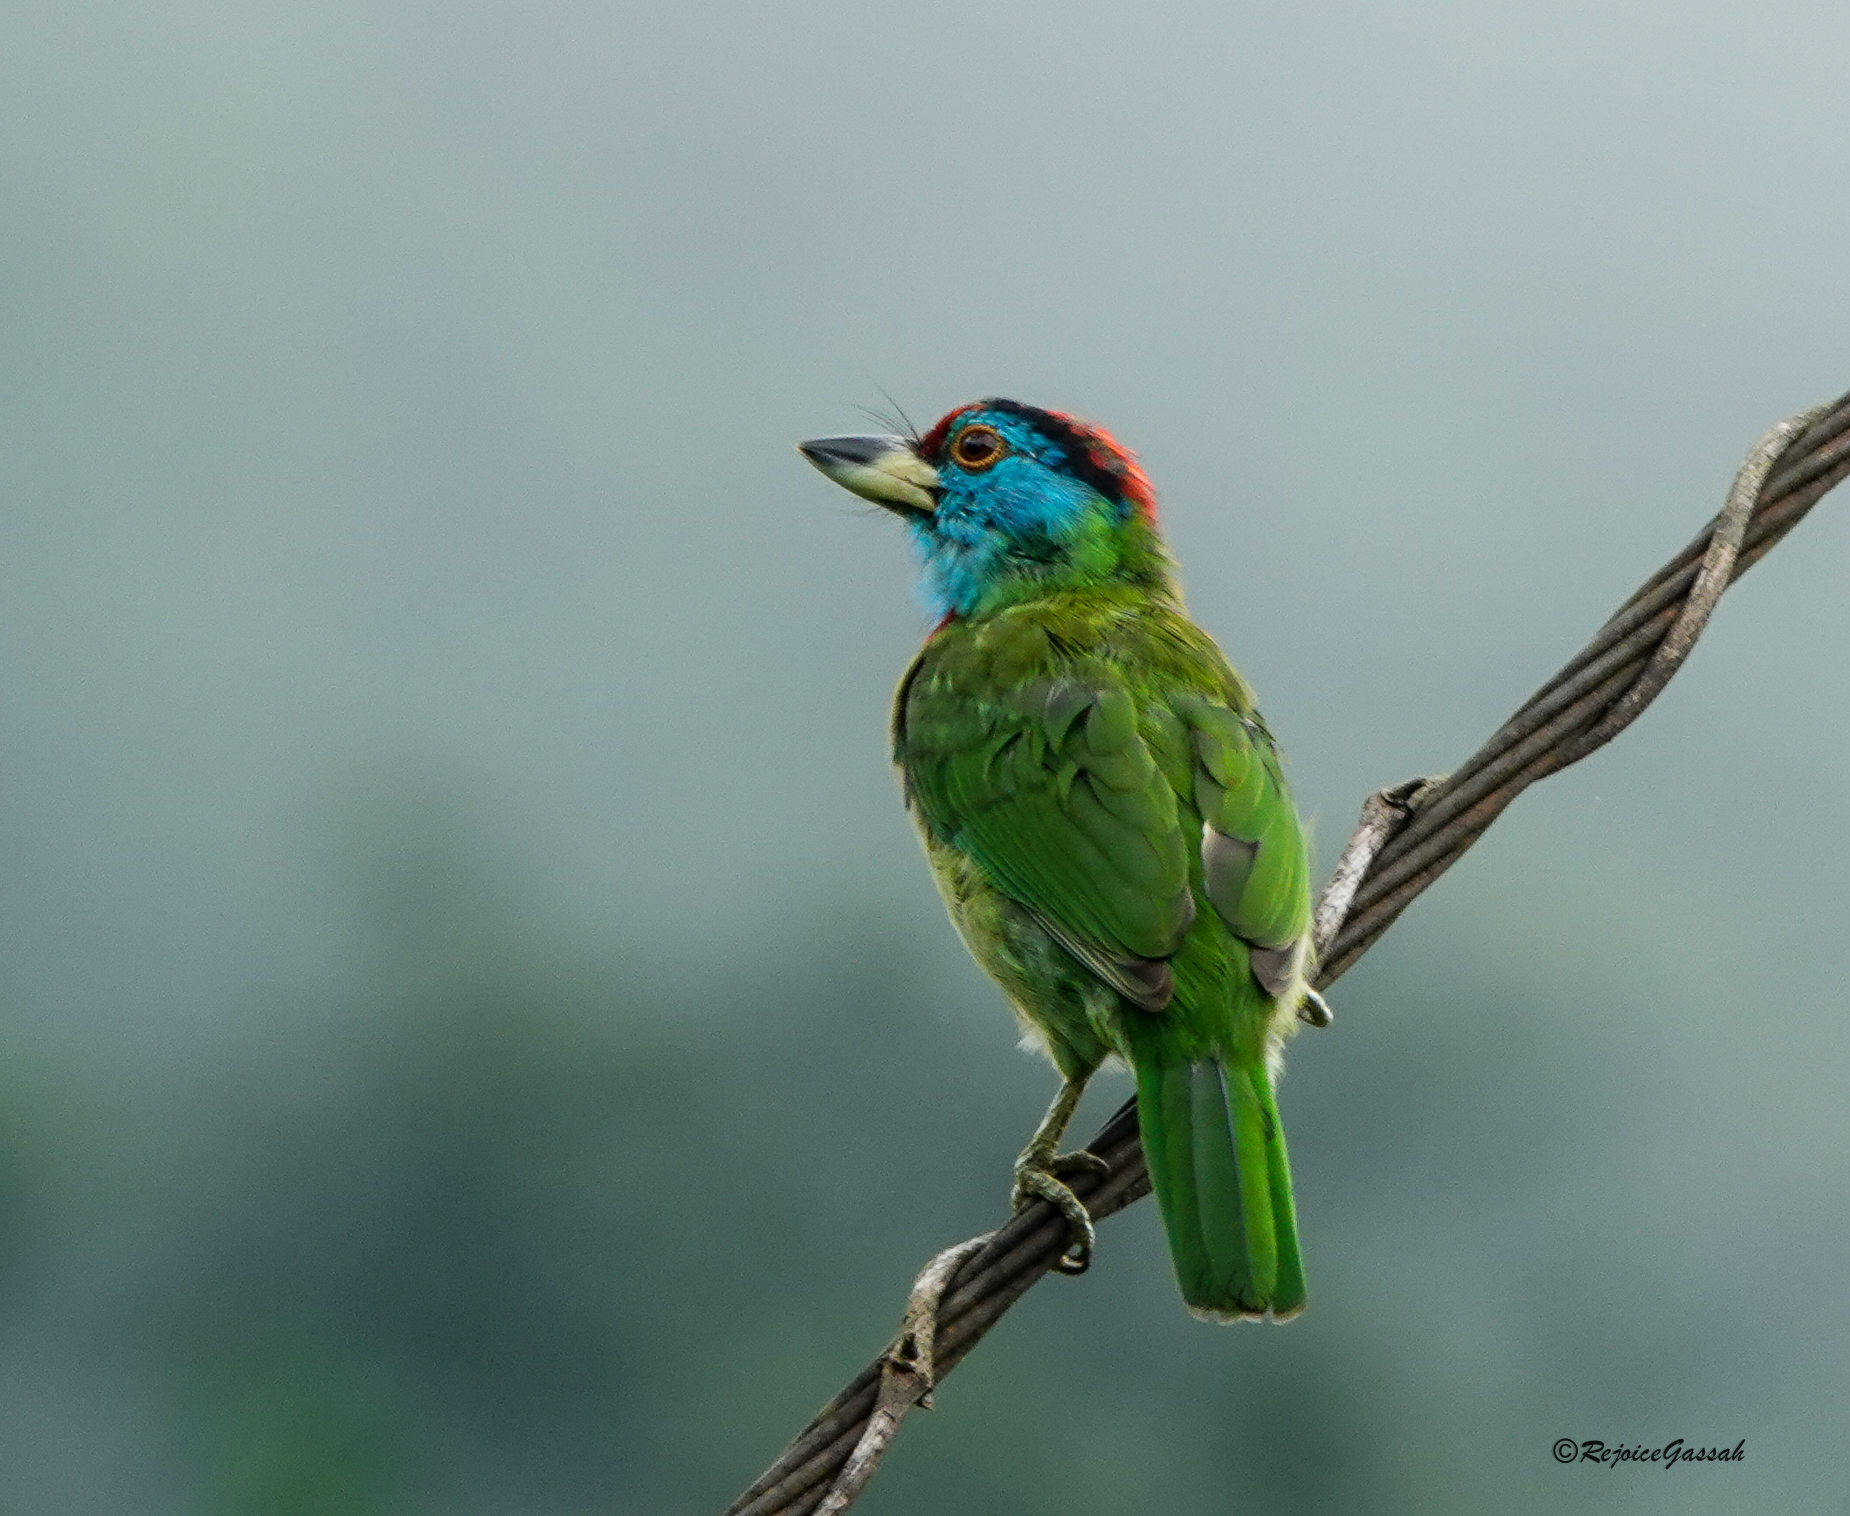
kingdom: Animalia
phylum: Chordata
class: Aves
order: Piciformes
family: Megalaimidae
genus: Psilopogon
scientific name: Psilopogon asiaticus
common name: Blue-throated barbet
